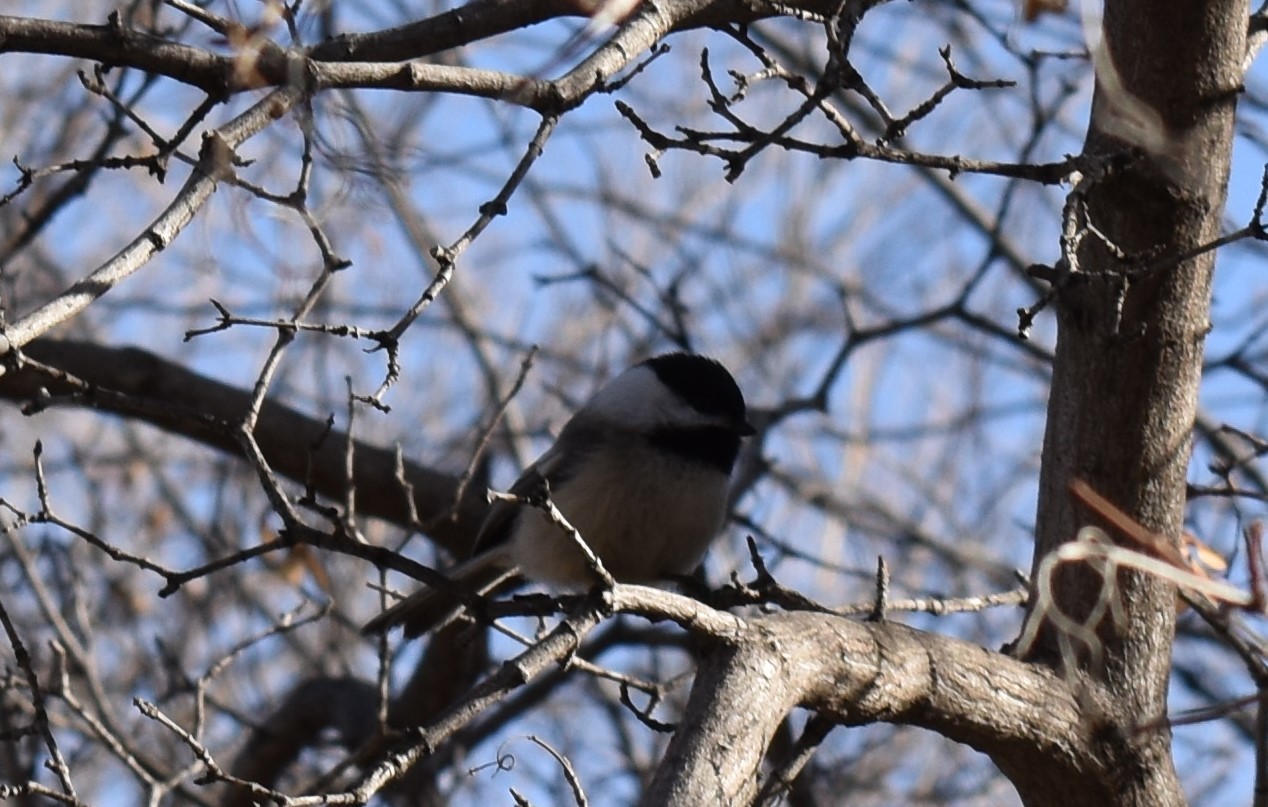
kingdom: Animalia
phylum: Chordata
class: Aves
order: Passeriformes
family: Paridae
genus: Poecile
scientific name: Poecile atricapillus
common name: Black-capped chickadee
